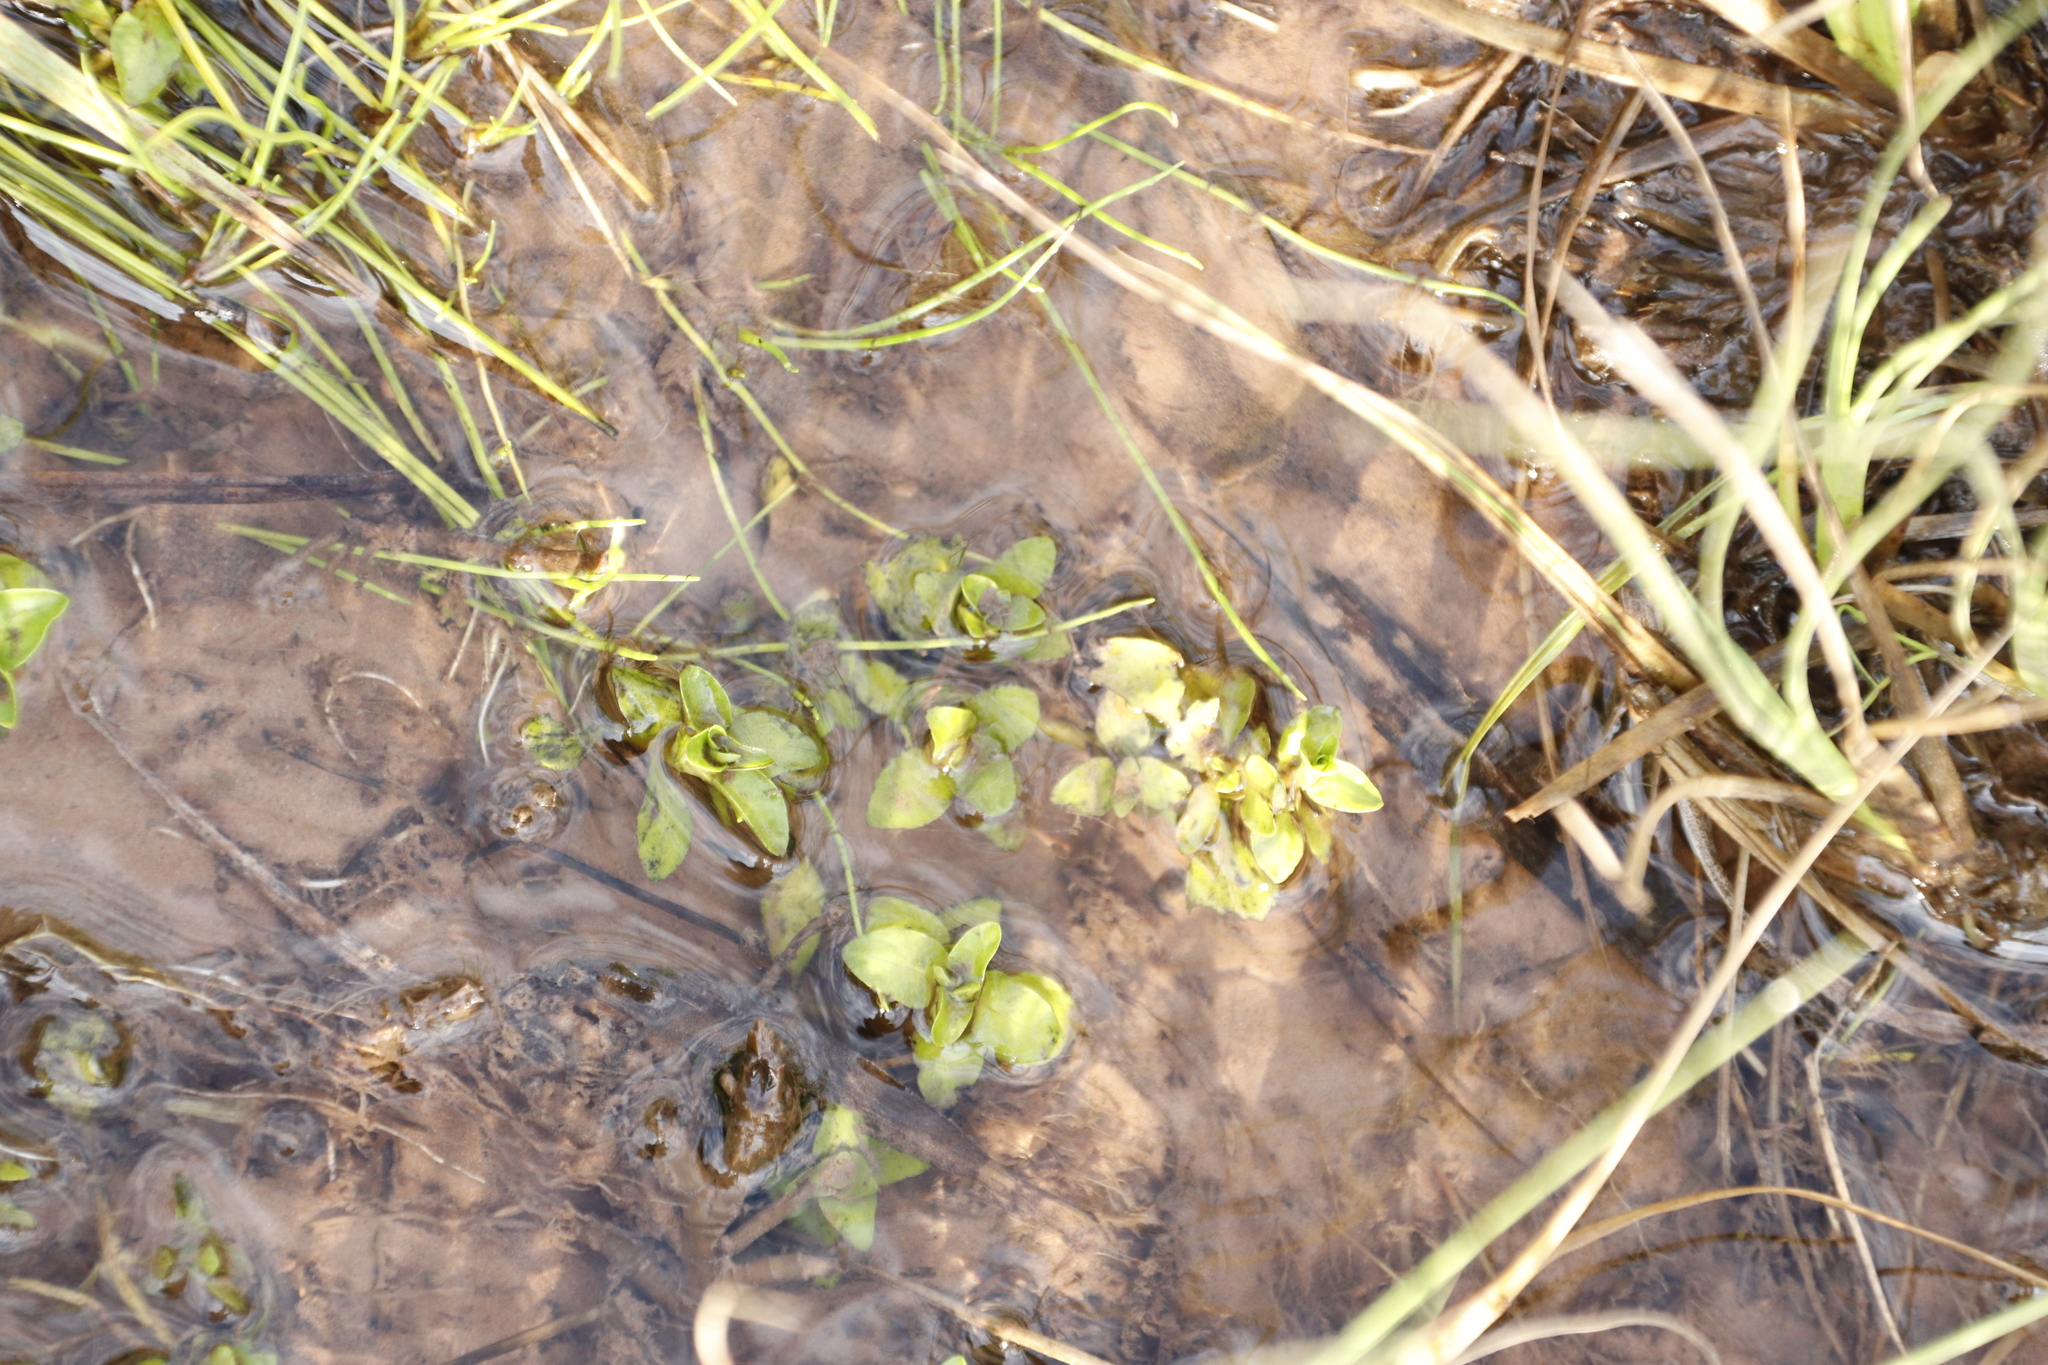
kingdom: Plantae
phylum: Tracheophyta
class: Magnoliopsida
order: Lamiales
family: Lamiaceae
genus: Mentha
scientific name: Mentha aquatica
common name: Water mint
